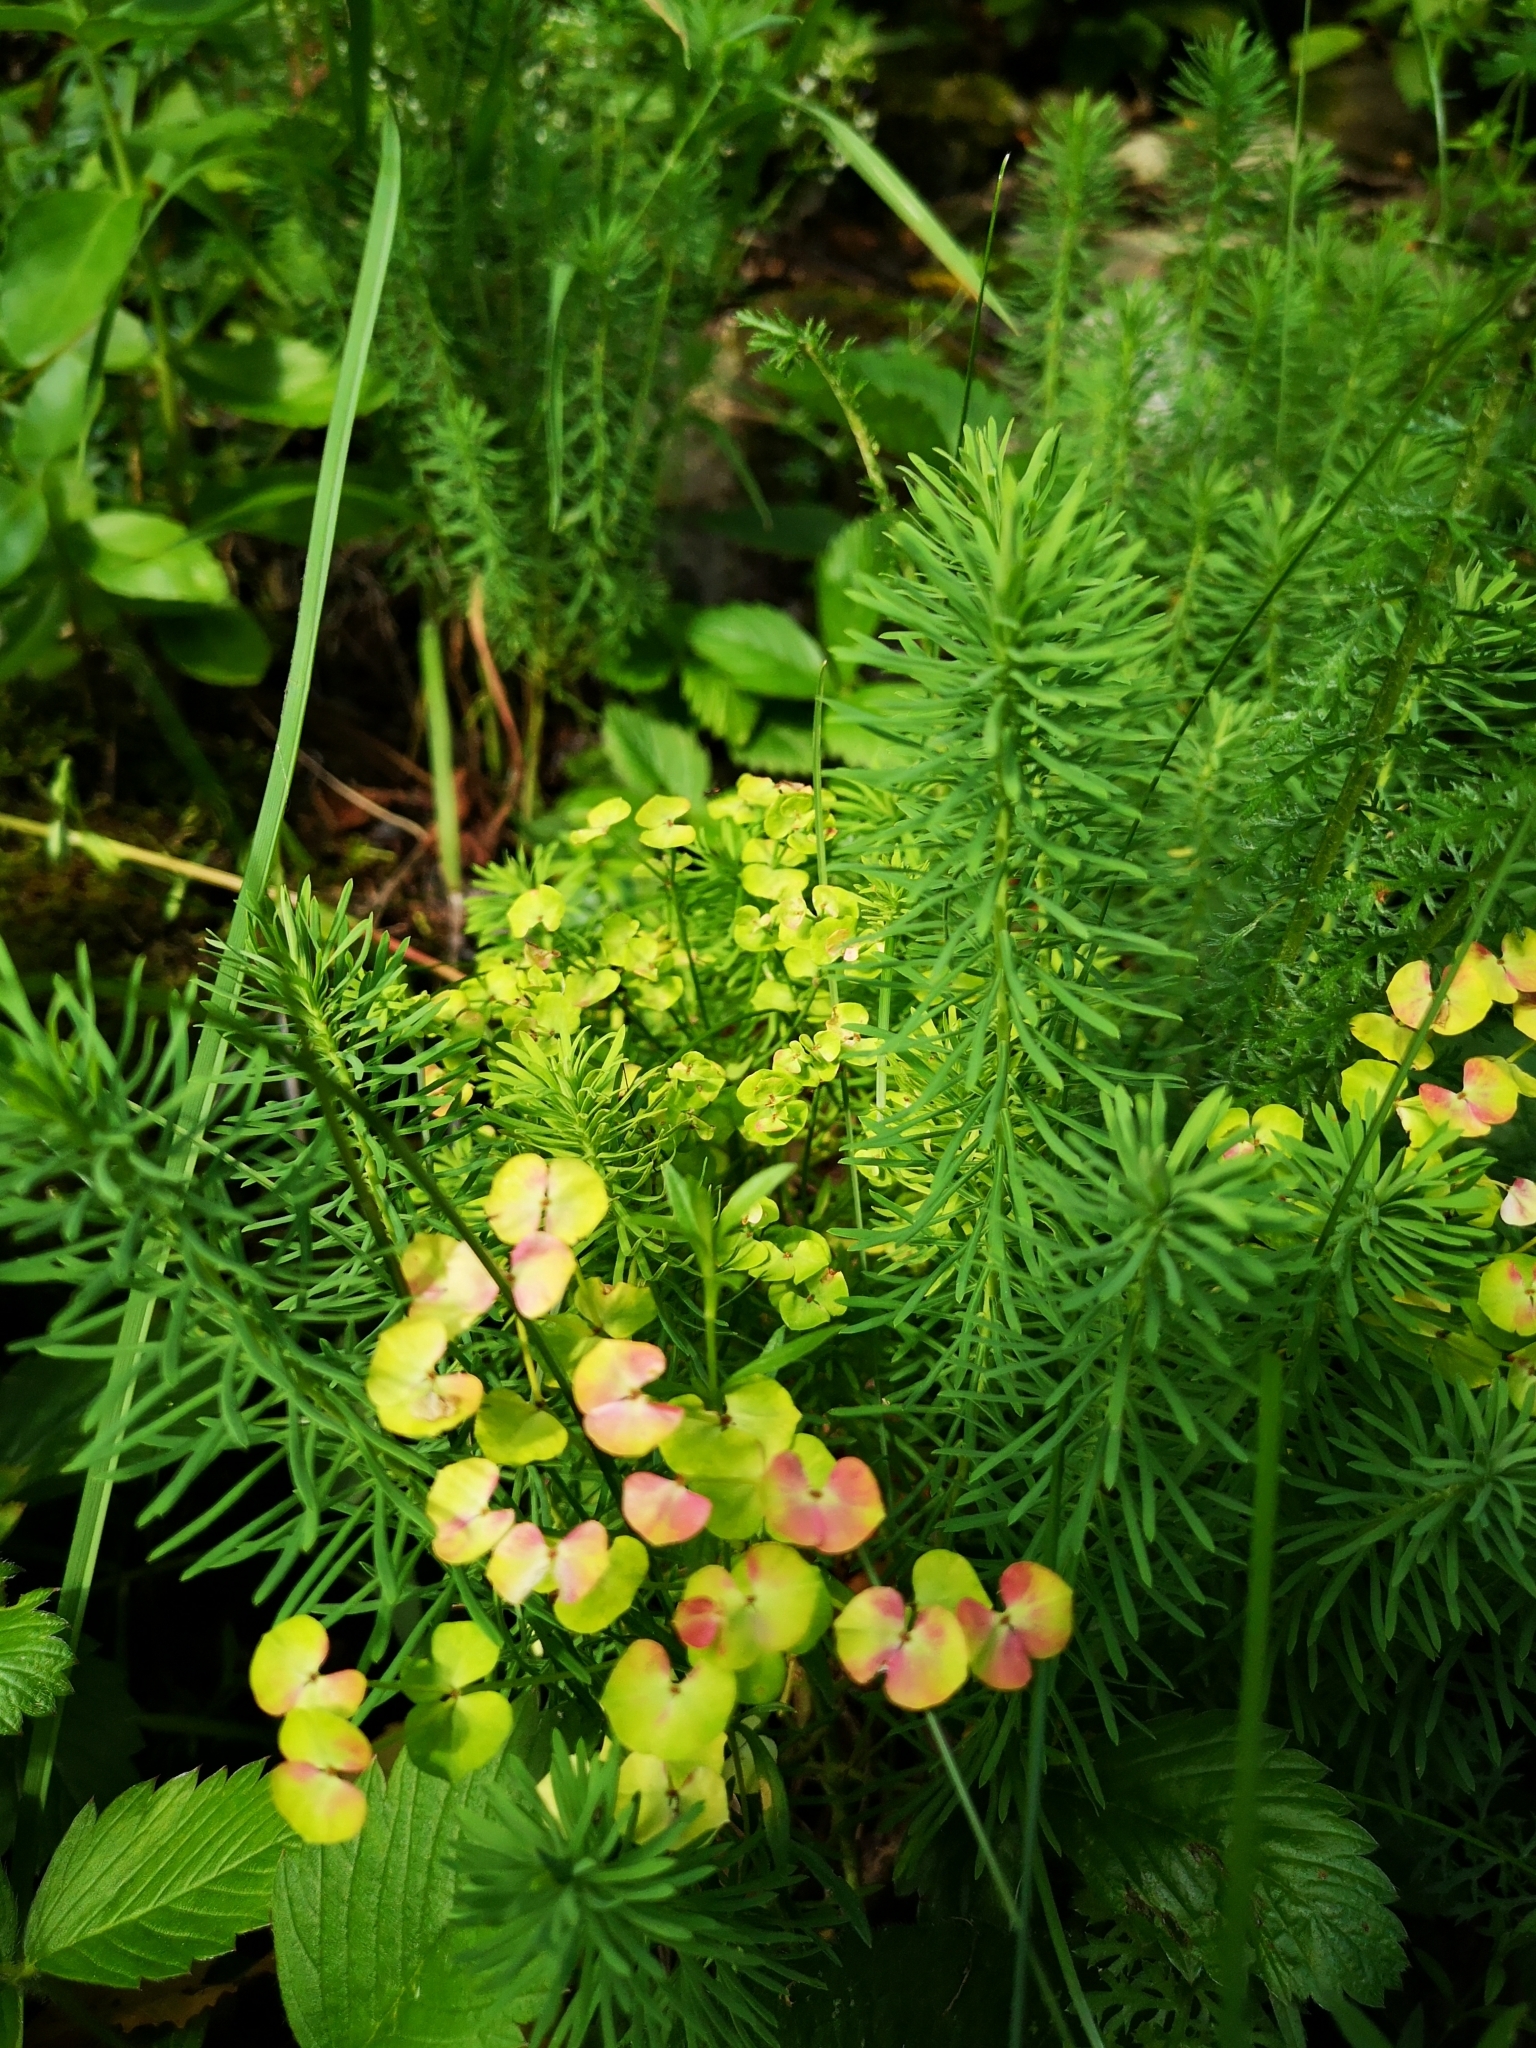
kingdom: Plantae
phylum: Tracheophyta
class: Magnoliopsida
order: Malpighiales
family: Euphorbiaceae
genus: Euphorbia
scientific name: Euphorbia cyparissias
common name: Cypress spurge
